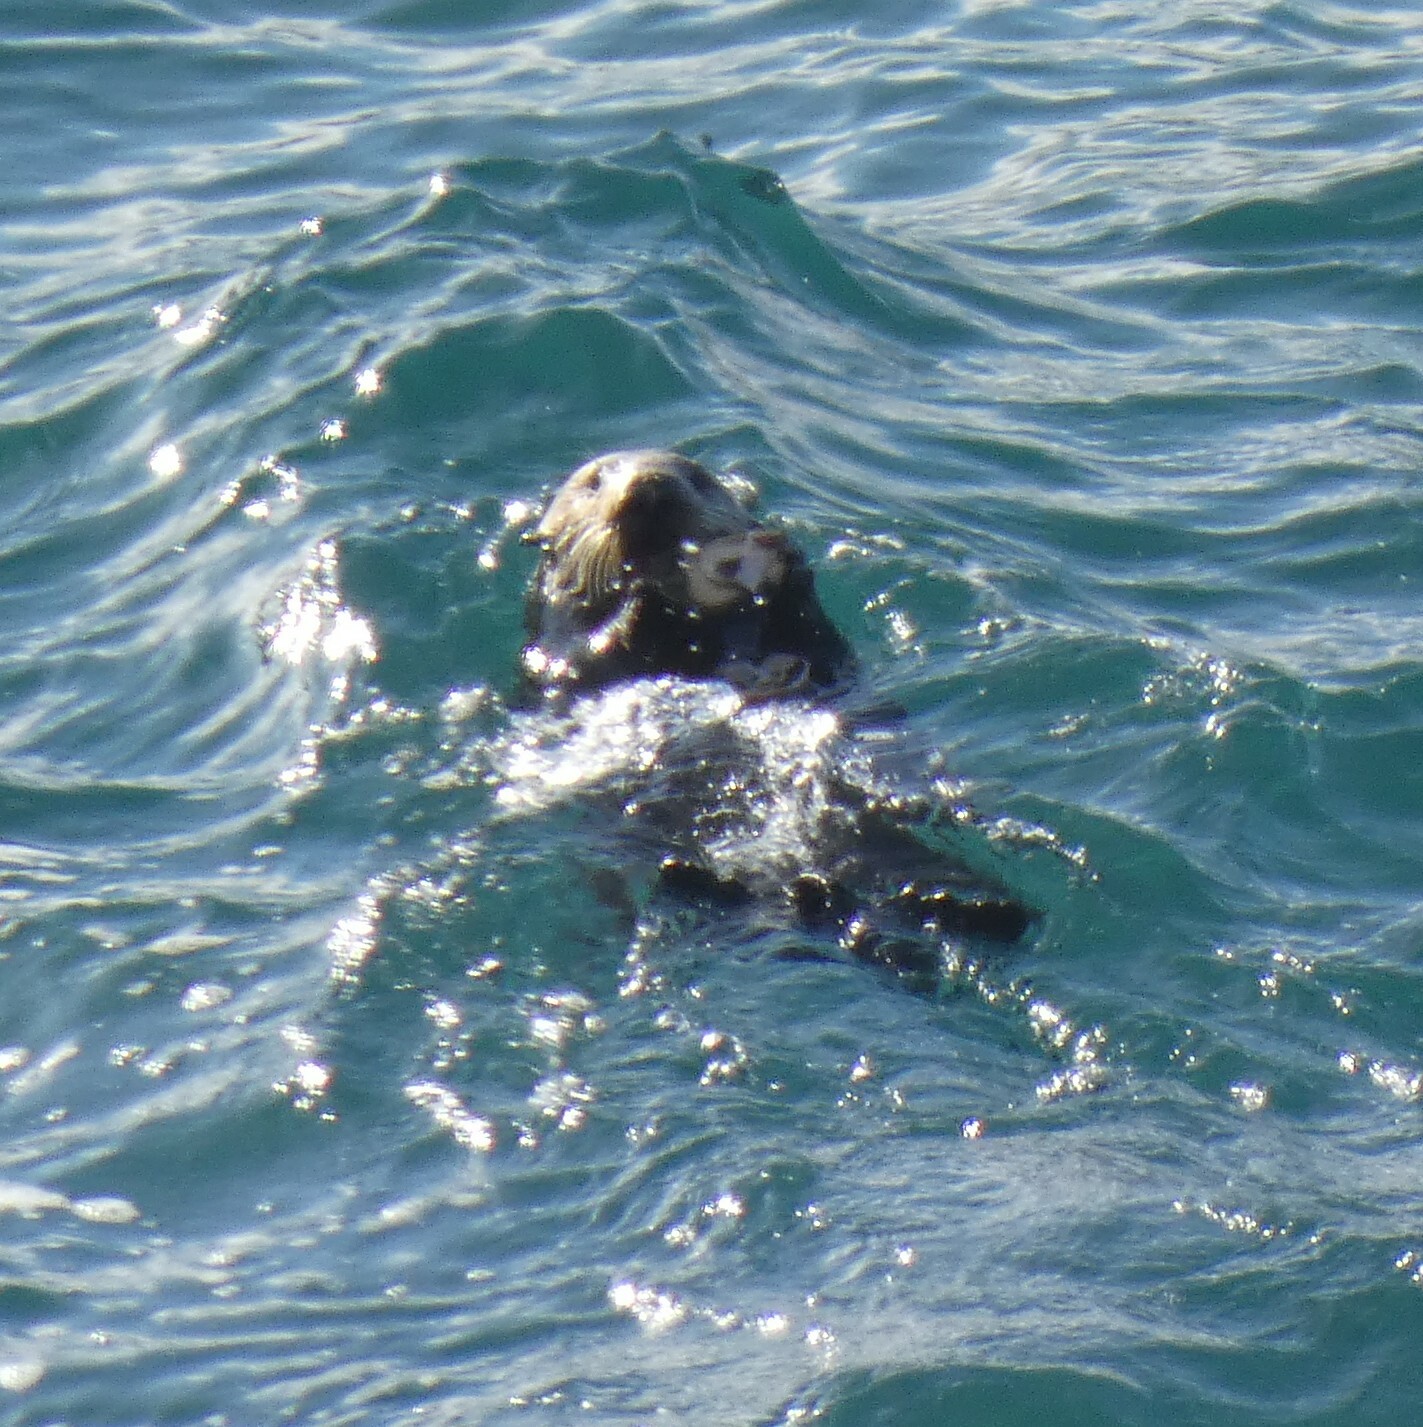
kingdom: Animalia
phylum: Chordata
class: Mammalia
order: Carnivora
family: Mustelidae
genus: Enhydra
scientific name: Enhydra lutris
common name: Sea otter
